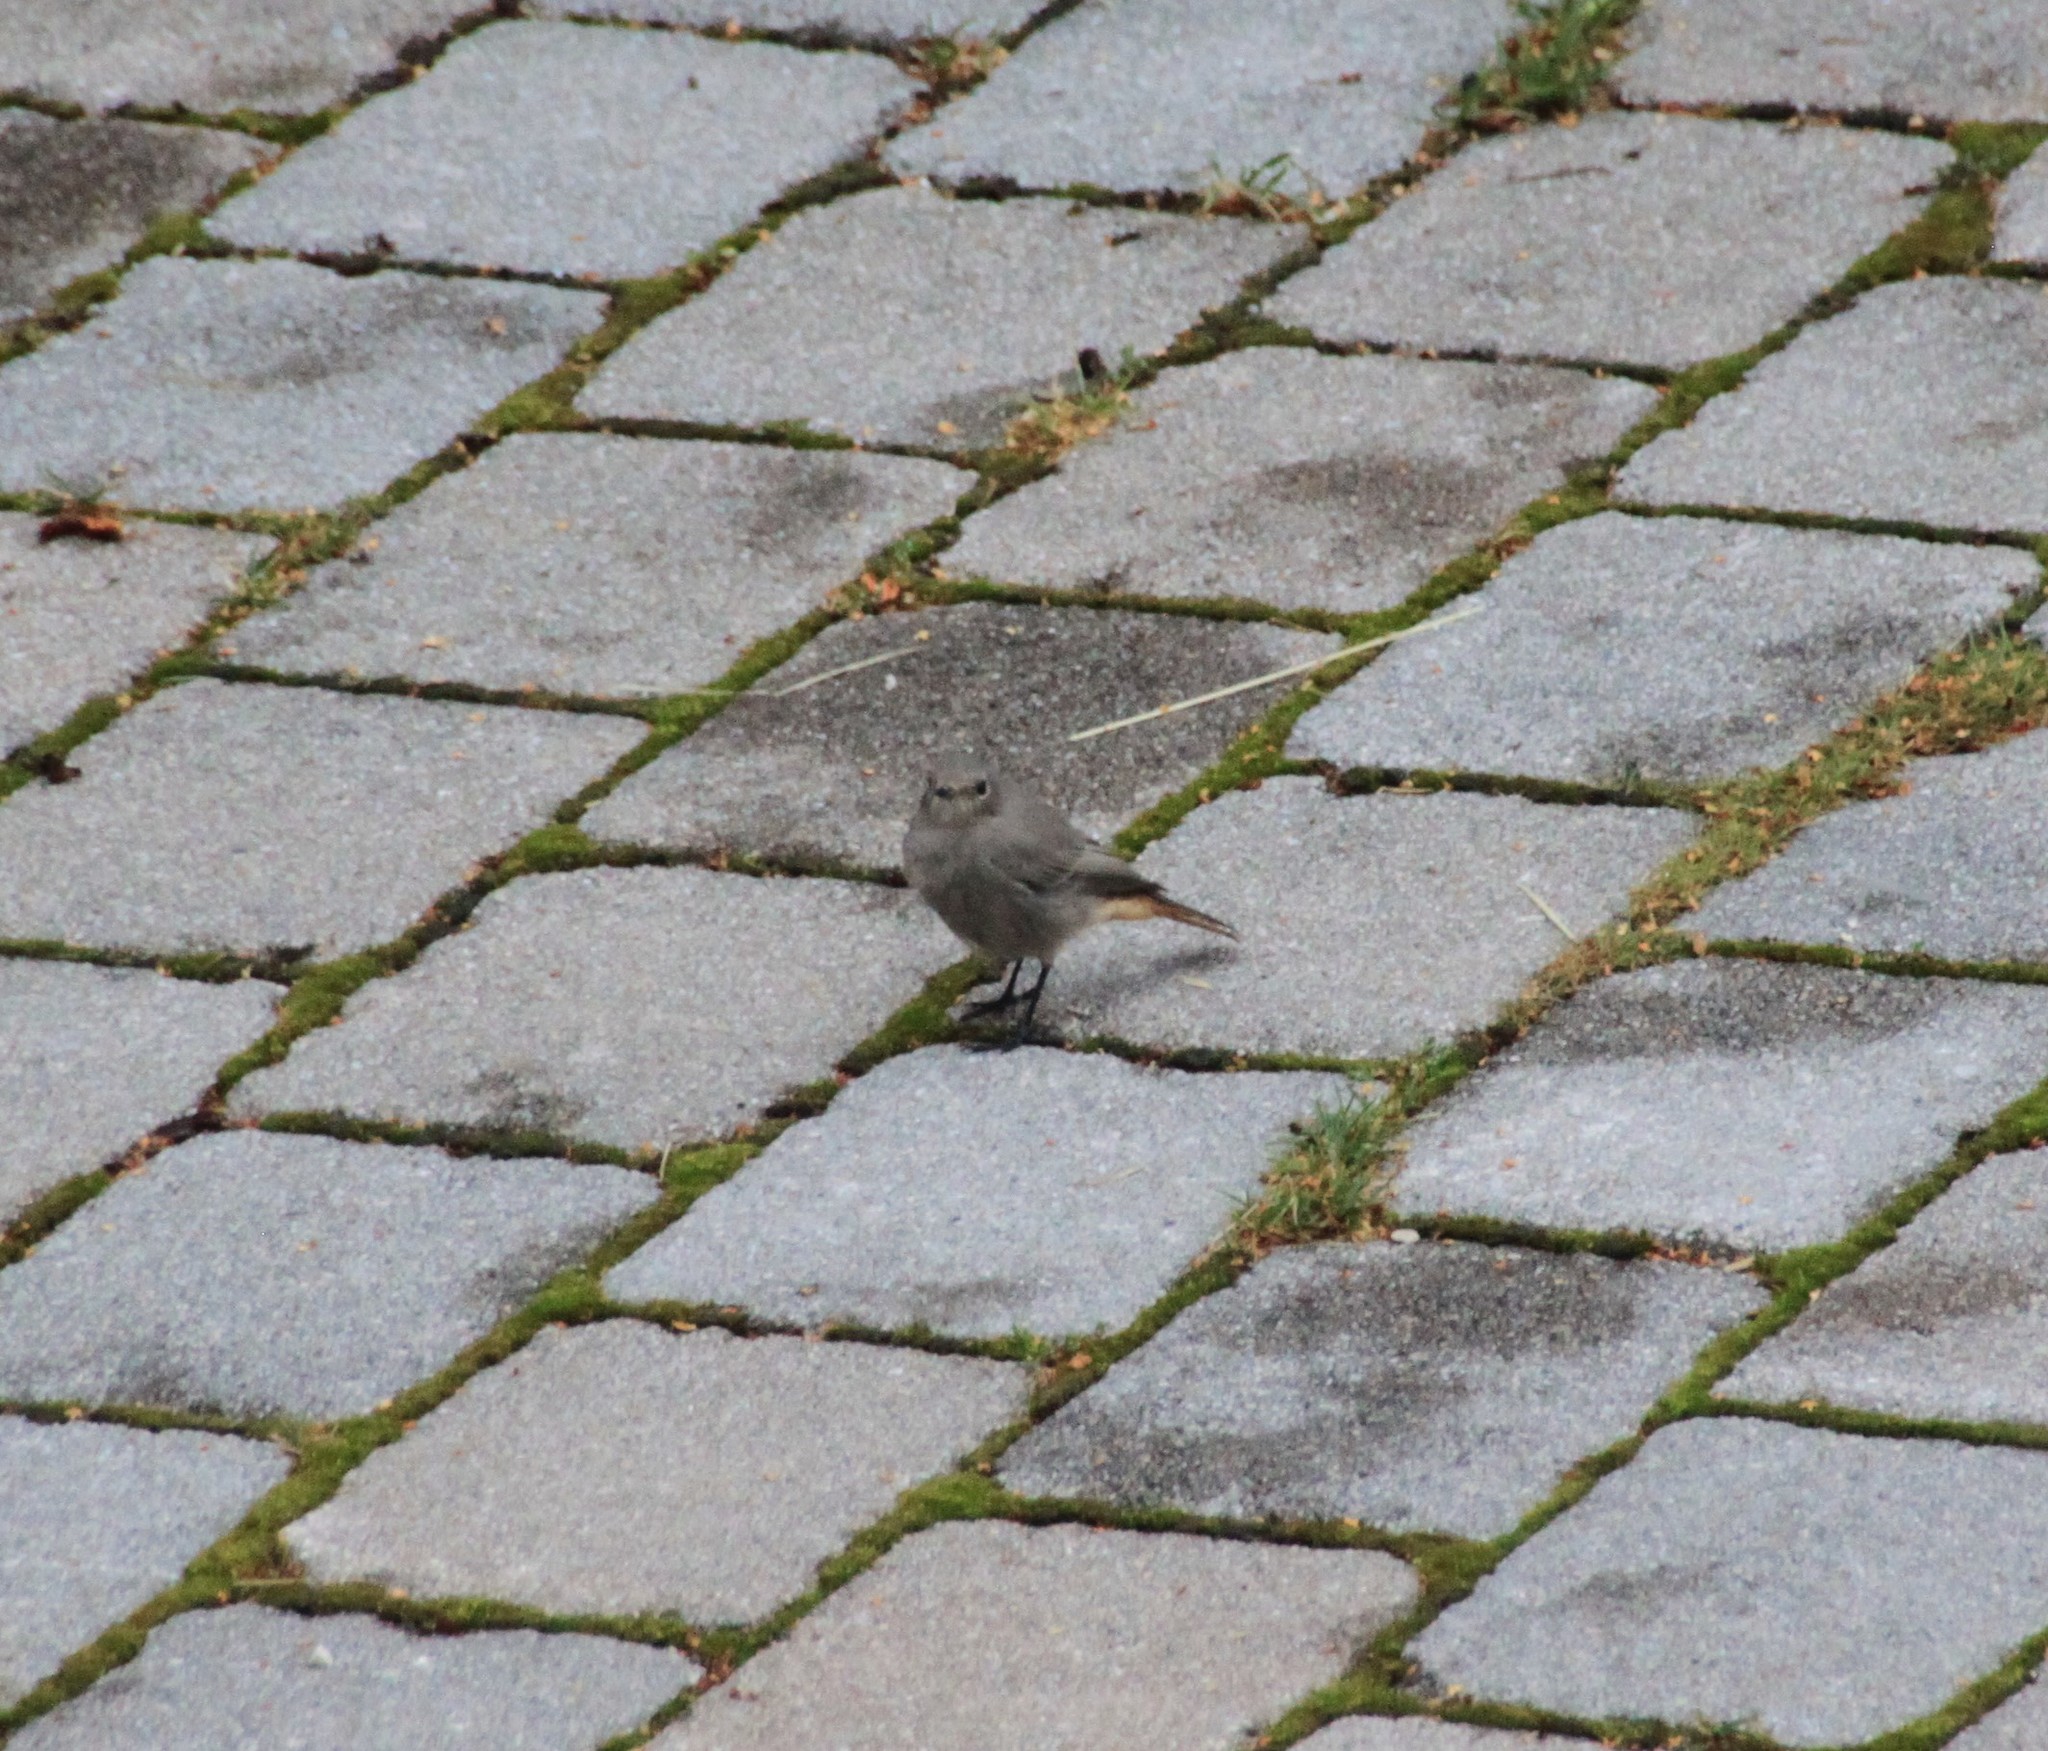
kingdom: Animalia
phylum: Chordata
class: Aves
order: Passeriformes
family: Muscicapidae
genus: Phoenicurus
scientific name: Phoenicurus ochruros
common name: Black redstart
